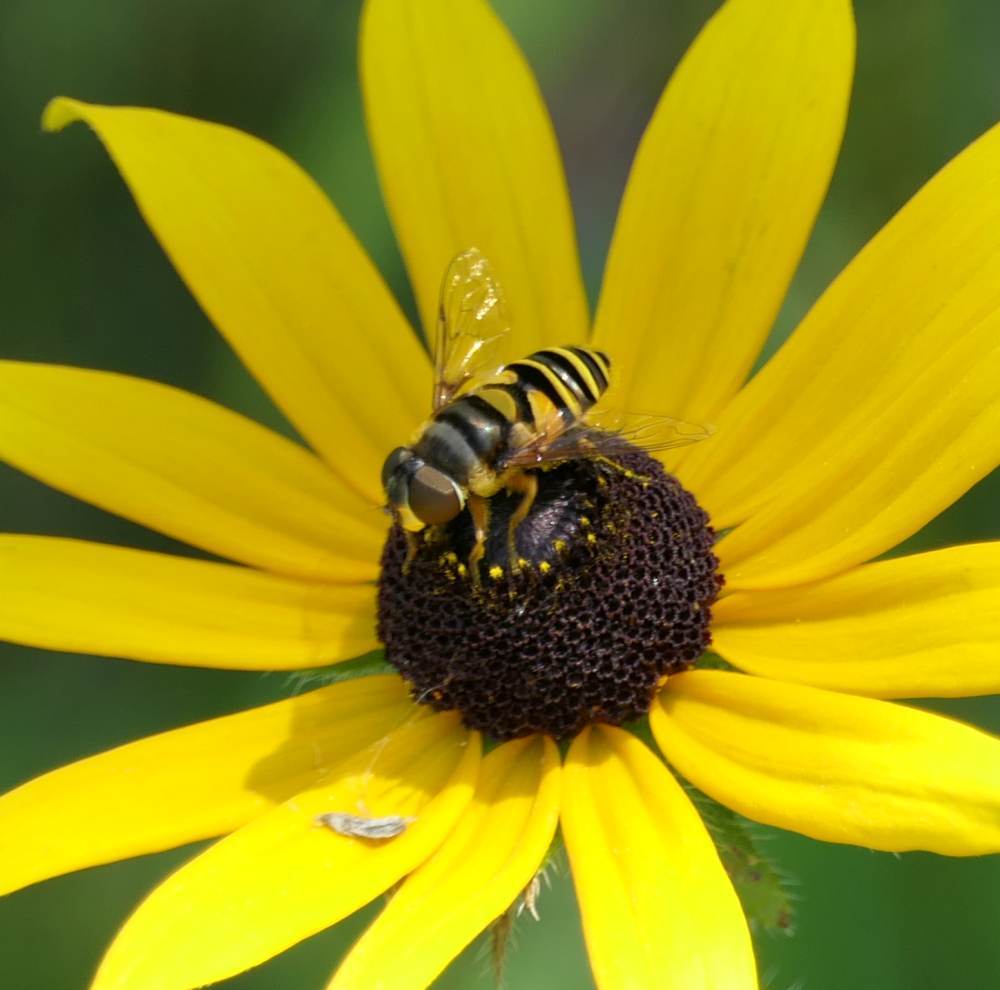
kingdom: Animalia
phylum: Arthropoda
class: Insecta
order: Diptera
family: Syrphidae
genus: Eristalis
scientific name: Eristalis transversa
